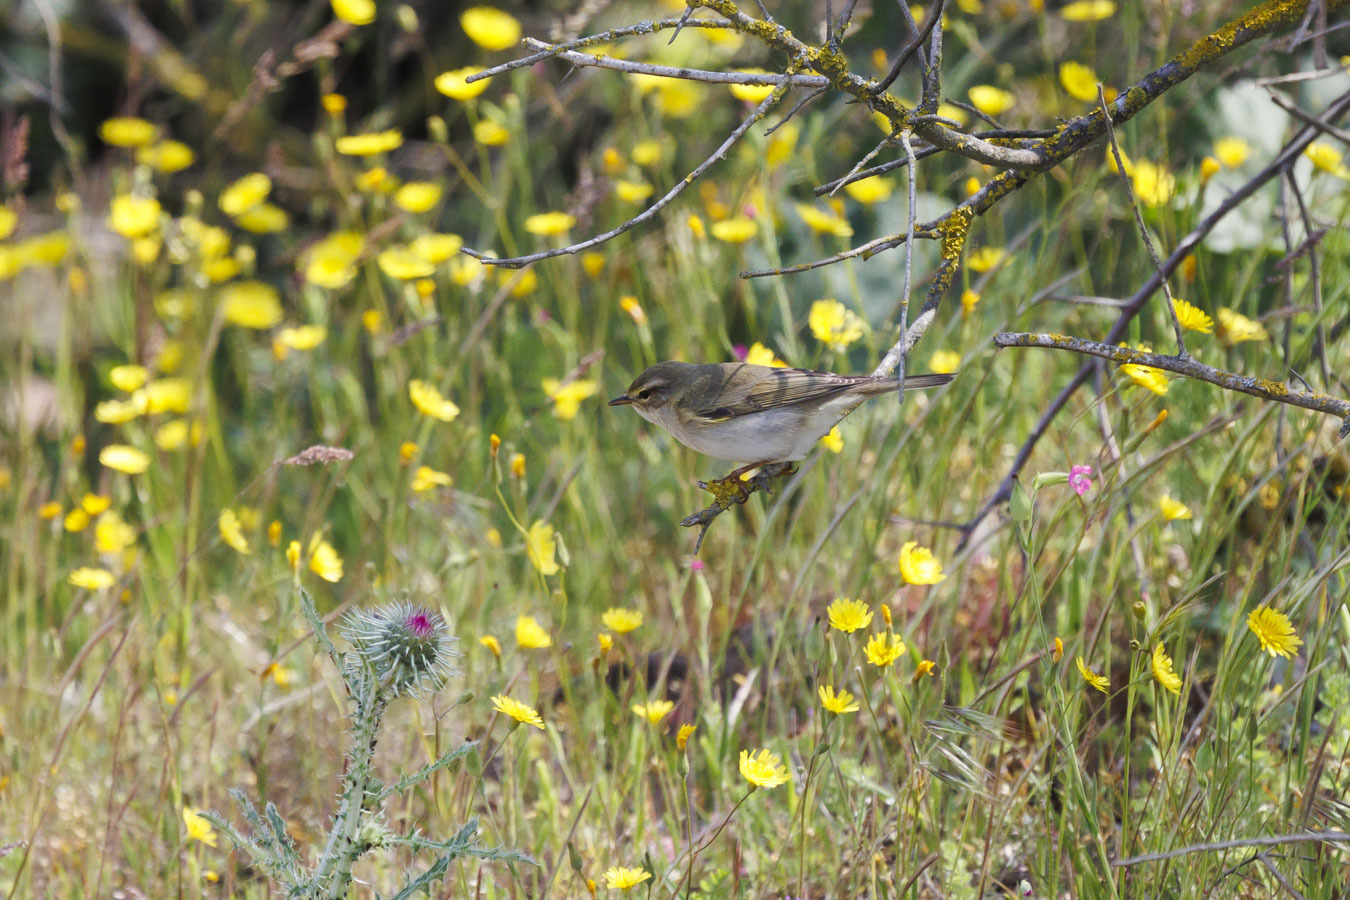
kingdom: Animalia
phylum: Chordata
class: Aves
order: Passeriformes
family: Phylloscopidae
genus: Phylloscopus
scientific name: Phylloscopus trochilus
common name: Willow warbler
